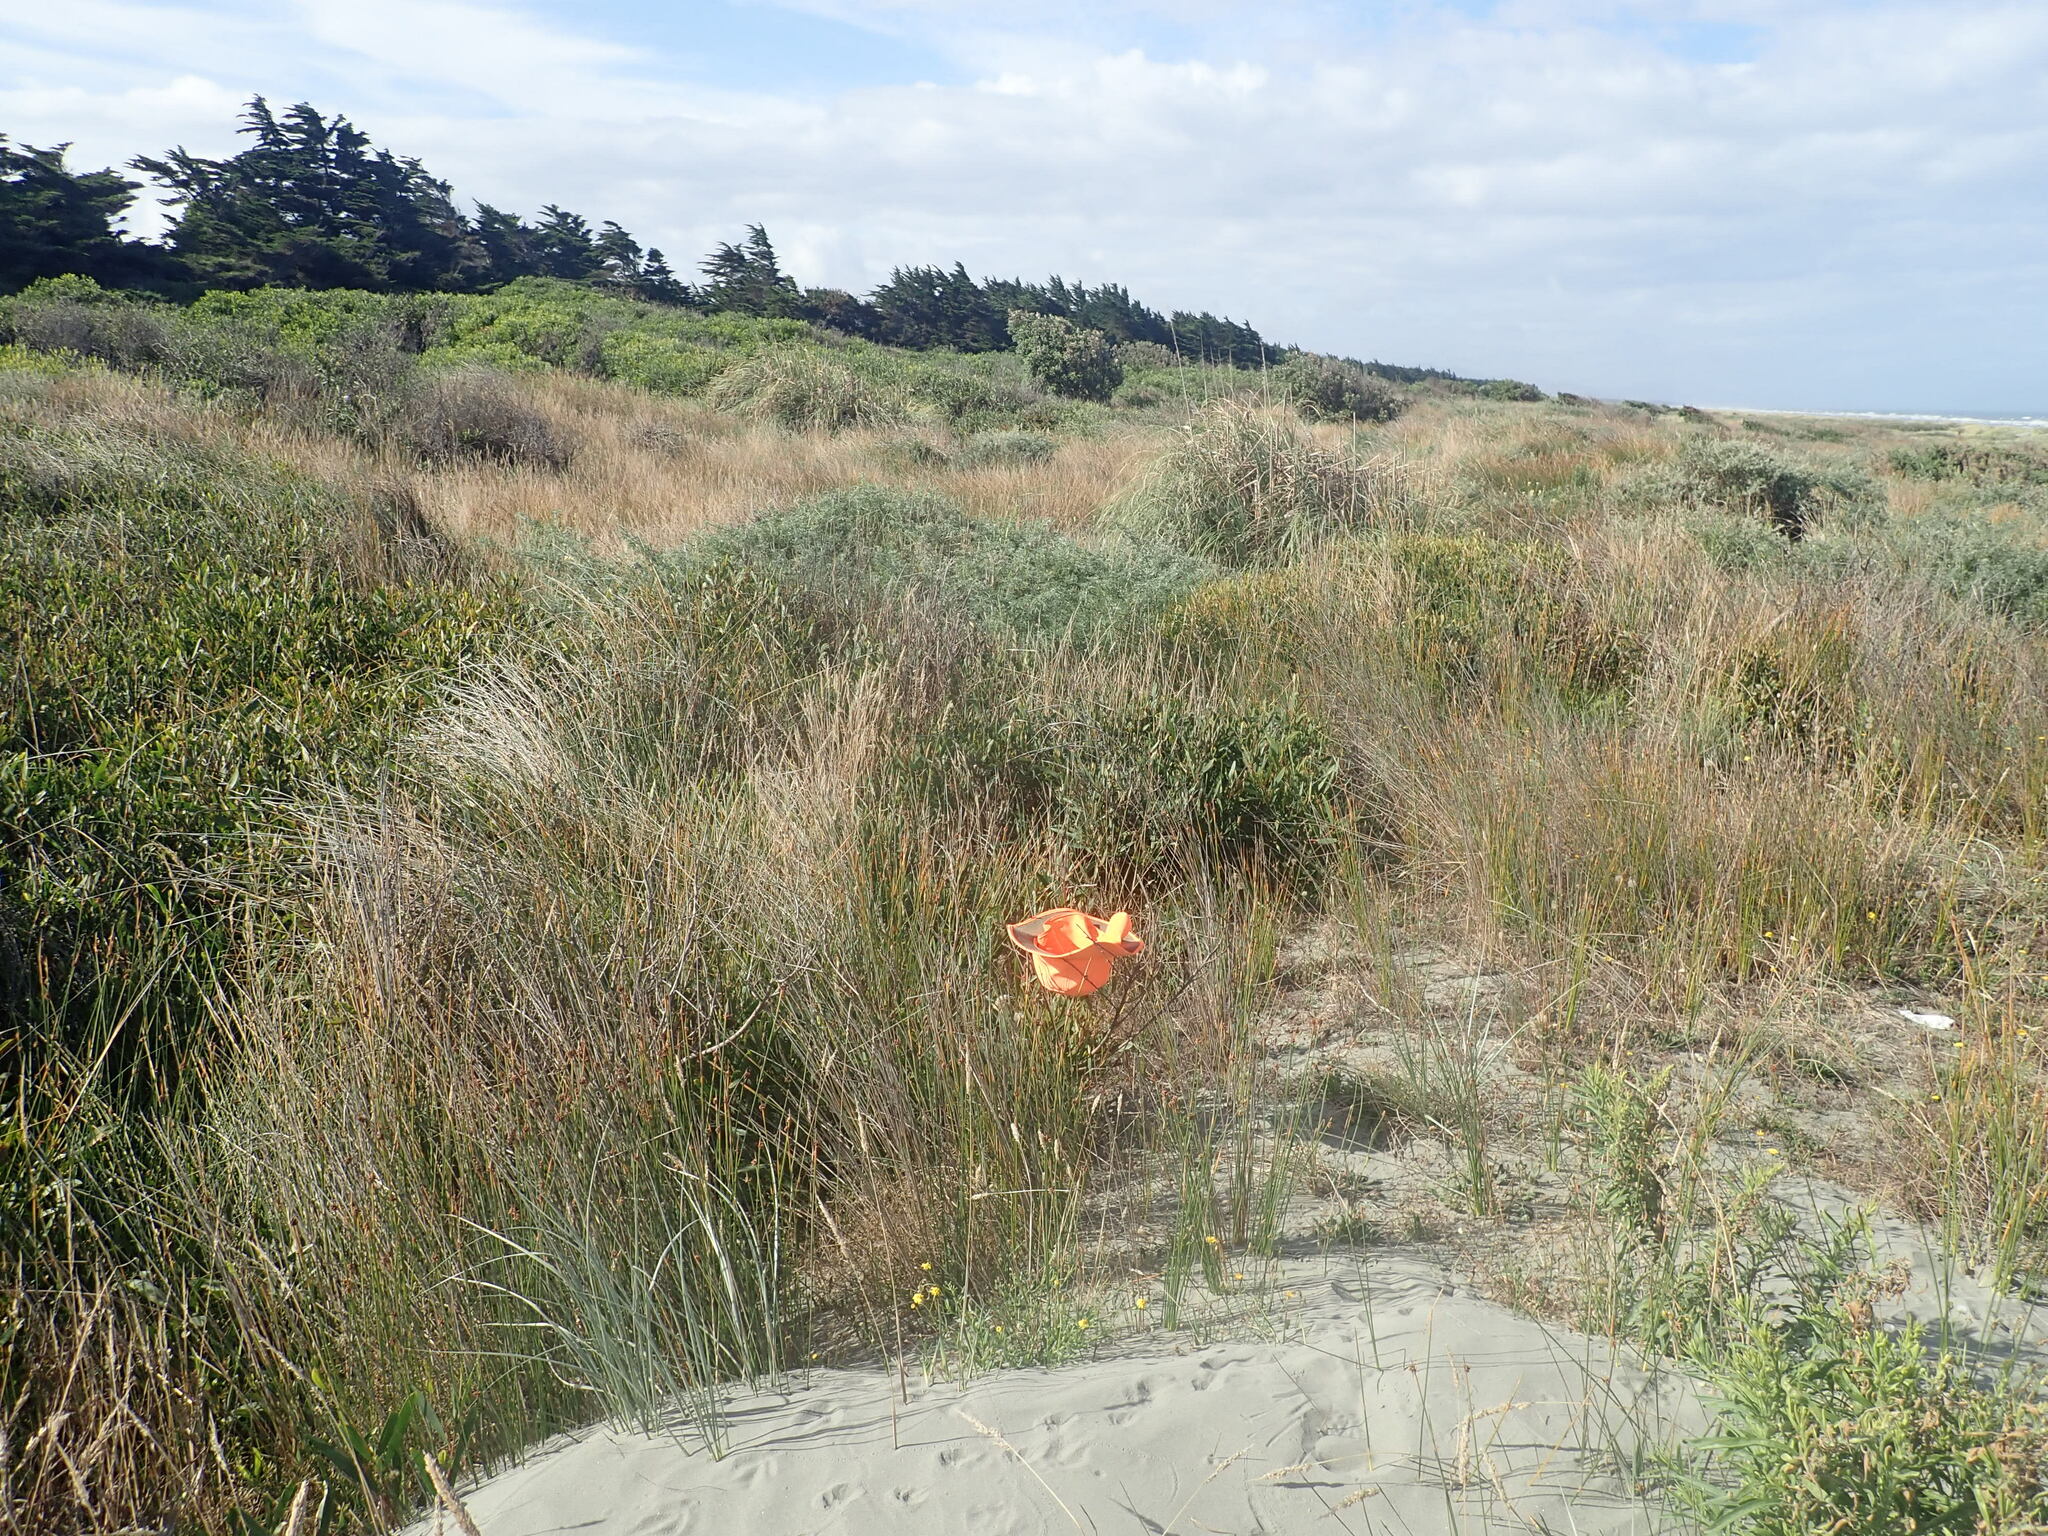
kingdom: Plantae
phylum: Tracheophyta
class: Magnoliopsida
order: Fabales
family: Fabaceae
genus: Acacia
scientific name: Acacia longifolia
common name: Sydney golden wattle
